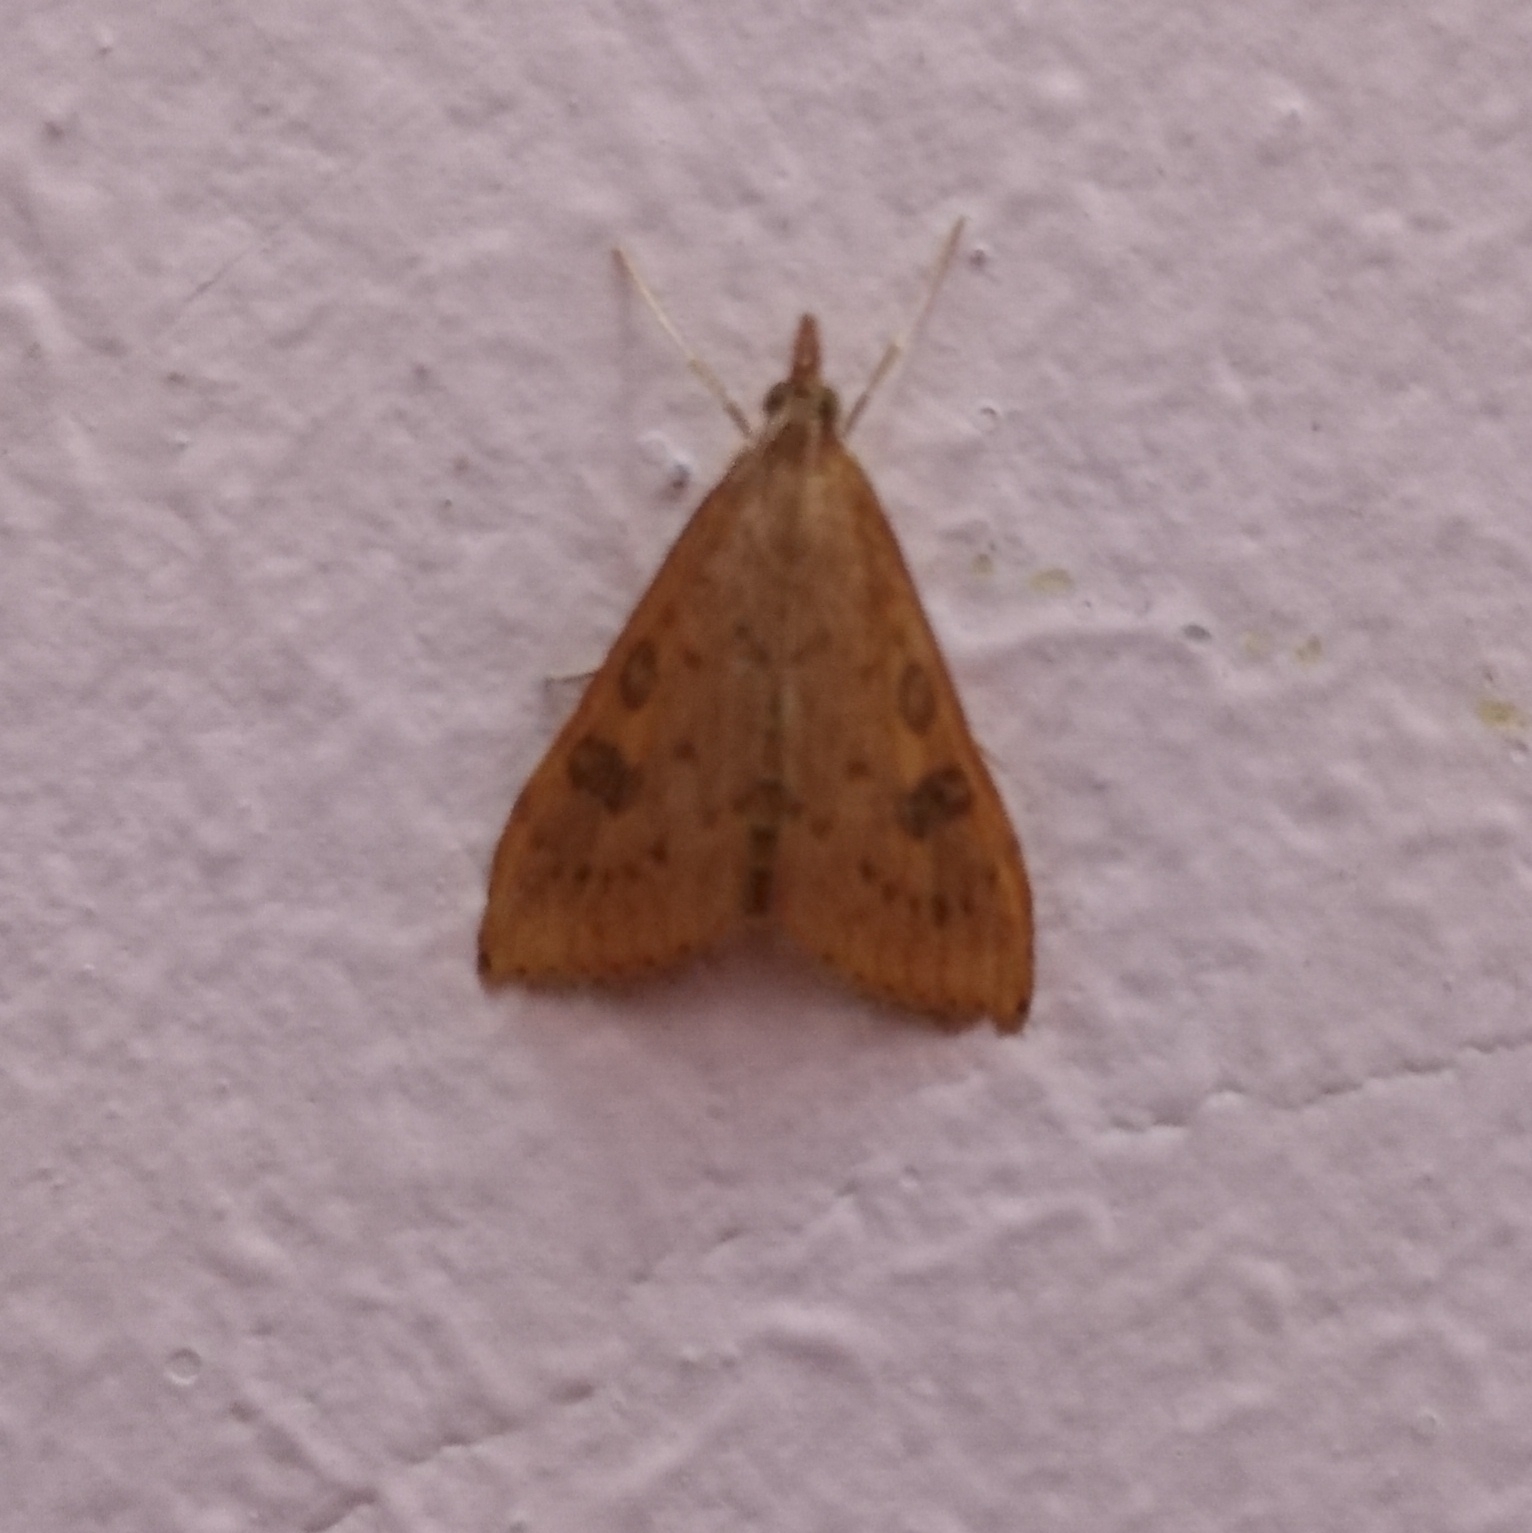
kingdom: Animalia
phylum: Arthropoda
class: Insecta
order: Lepidoptera
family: Crambidae
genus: Udea
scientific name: Udea ferrugalis
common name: Rusty dot
